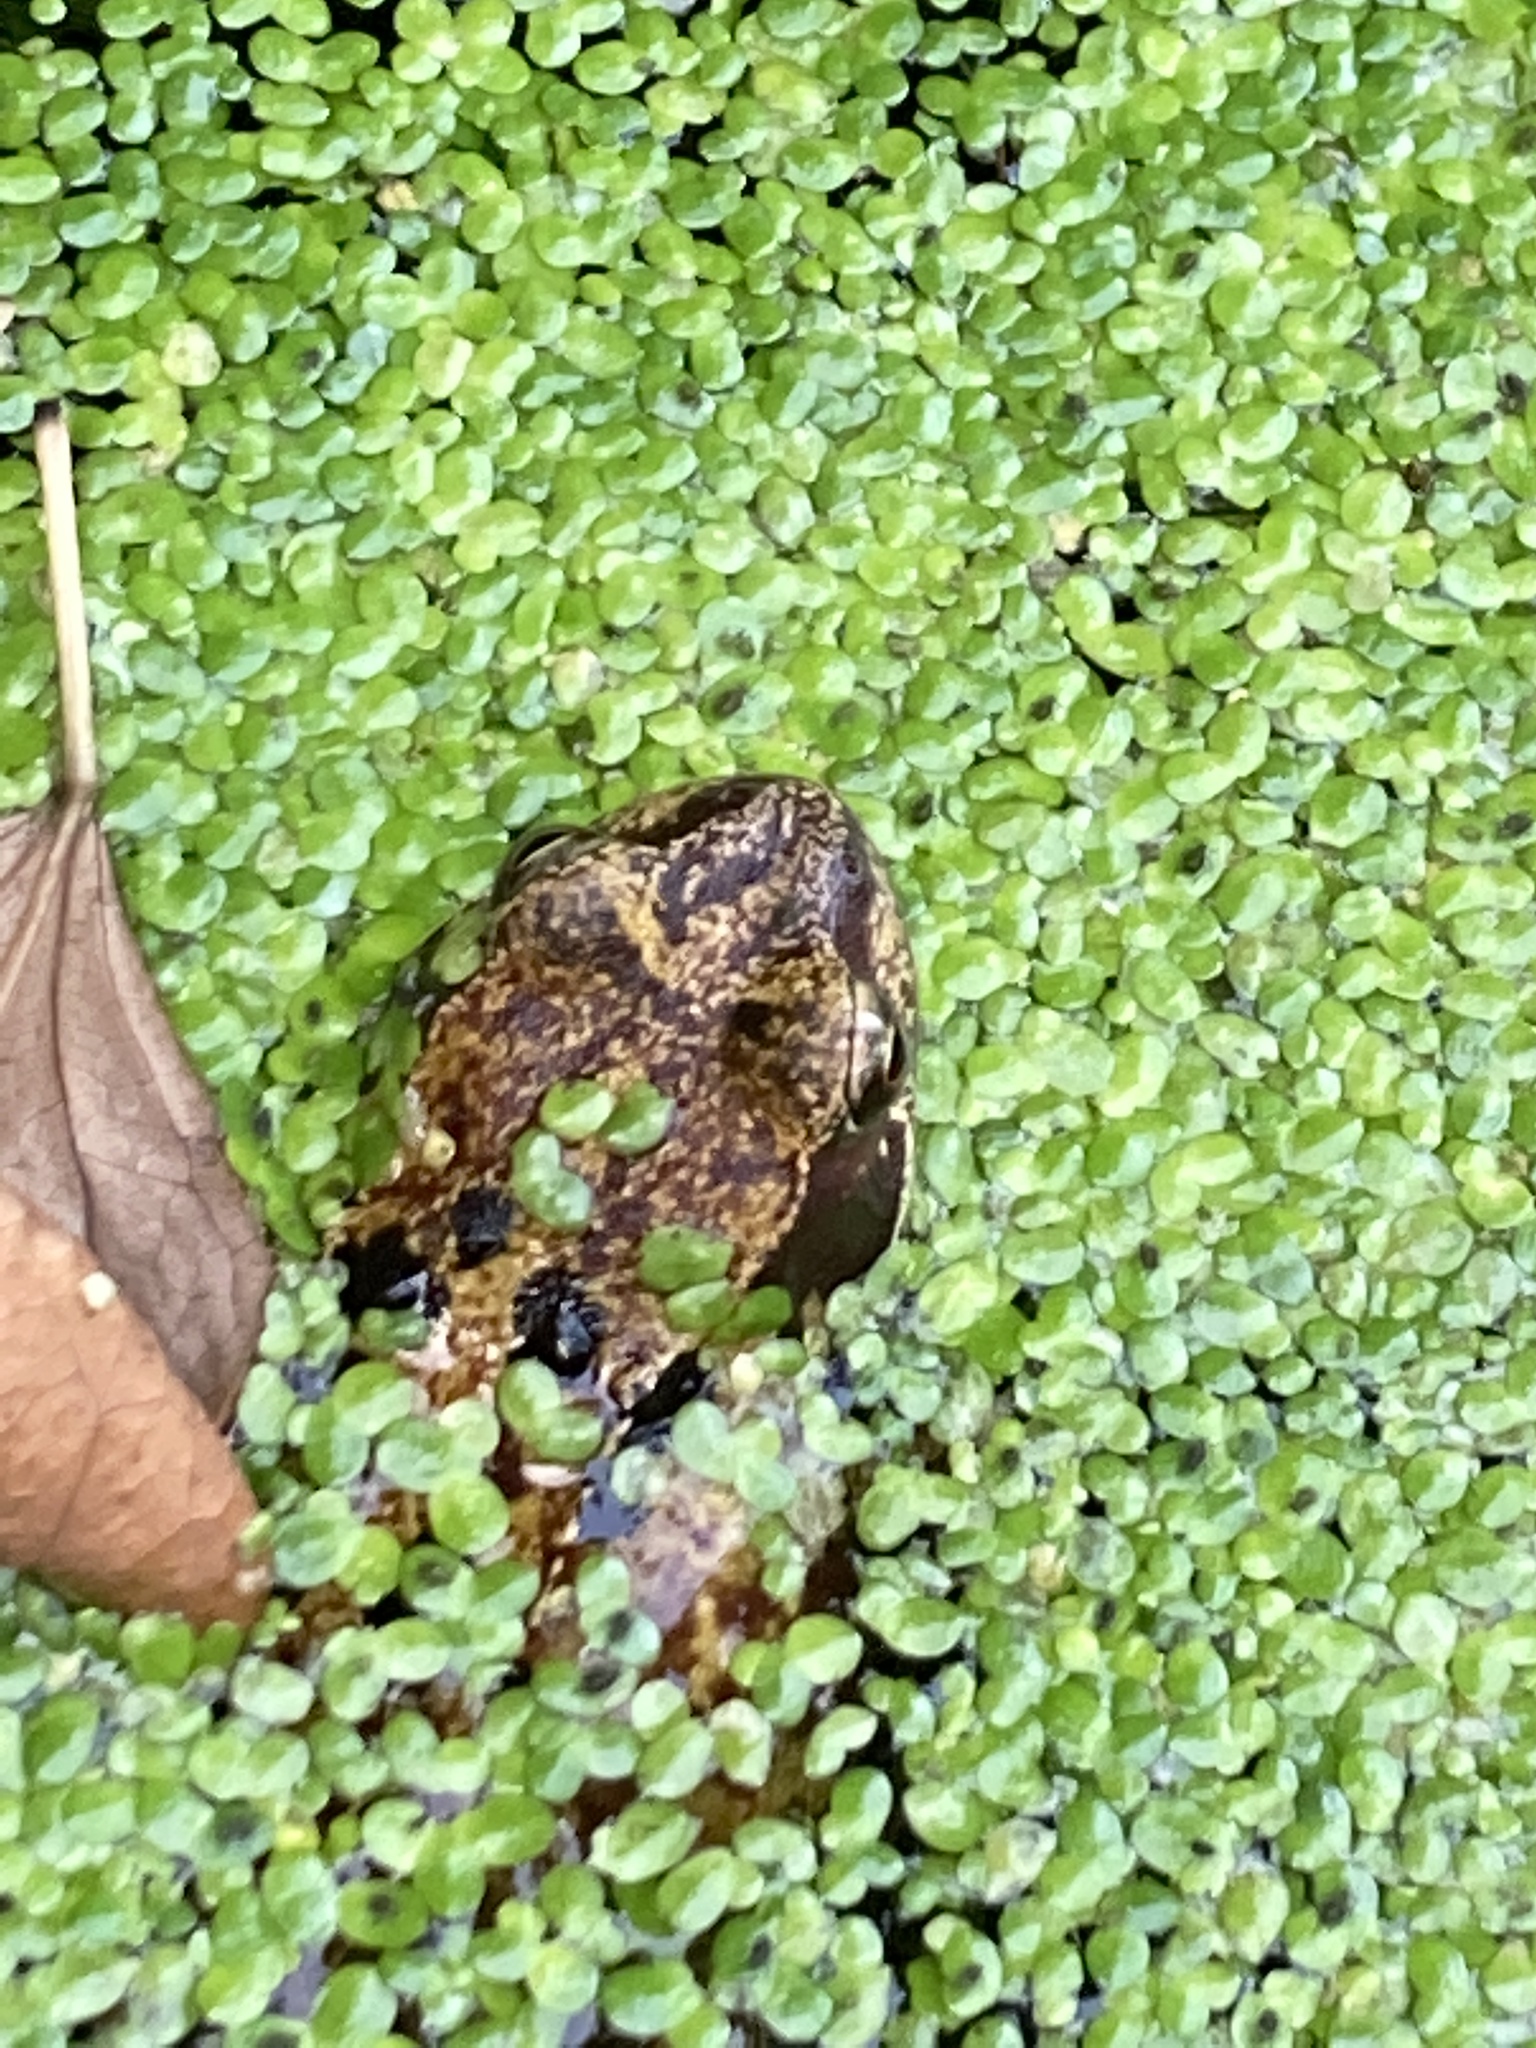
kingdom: Animalia
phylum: Chordata
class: Amphibia
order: Anura
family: Ranidae
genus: Rana
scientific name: Rana temporaria
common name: Common frog
